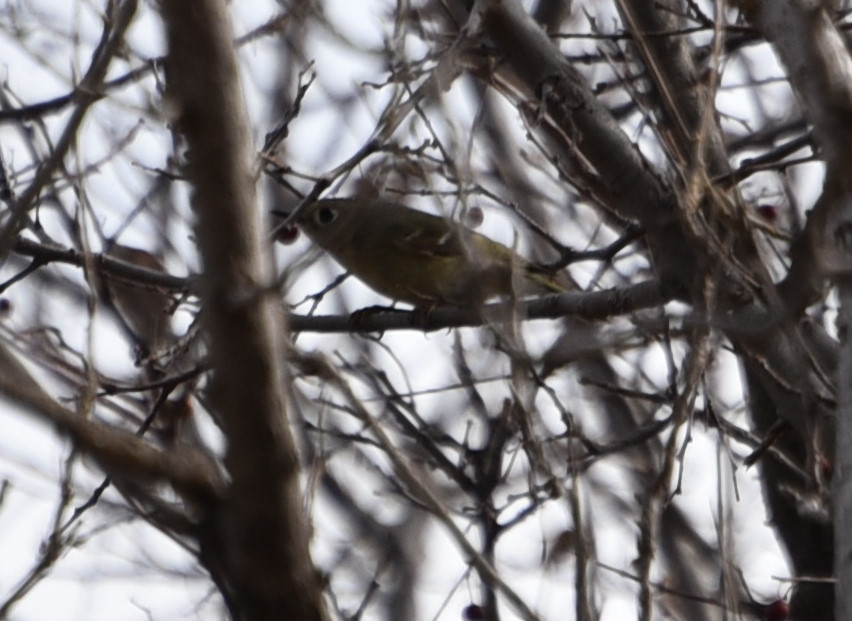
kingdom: Animalia
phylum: Chordata
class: Aves
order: Passeriformes
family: Regulidae
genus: Regulus
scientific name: Regulus calendula
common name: Ruby-crowned kinglet
